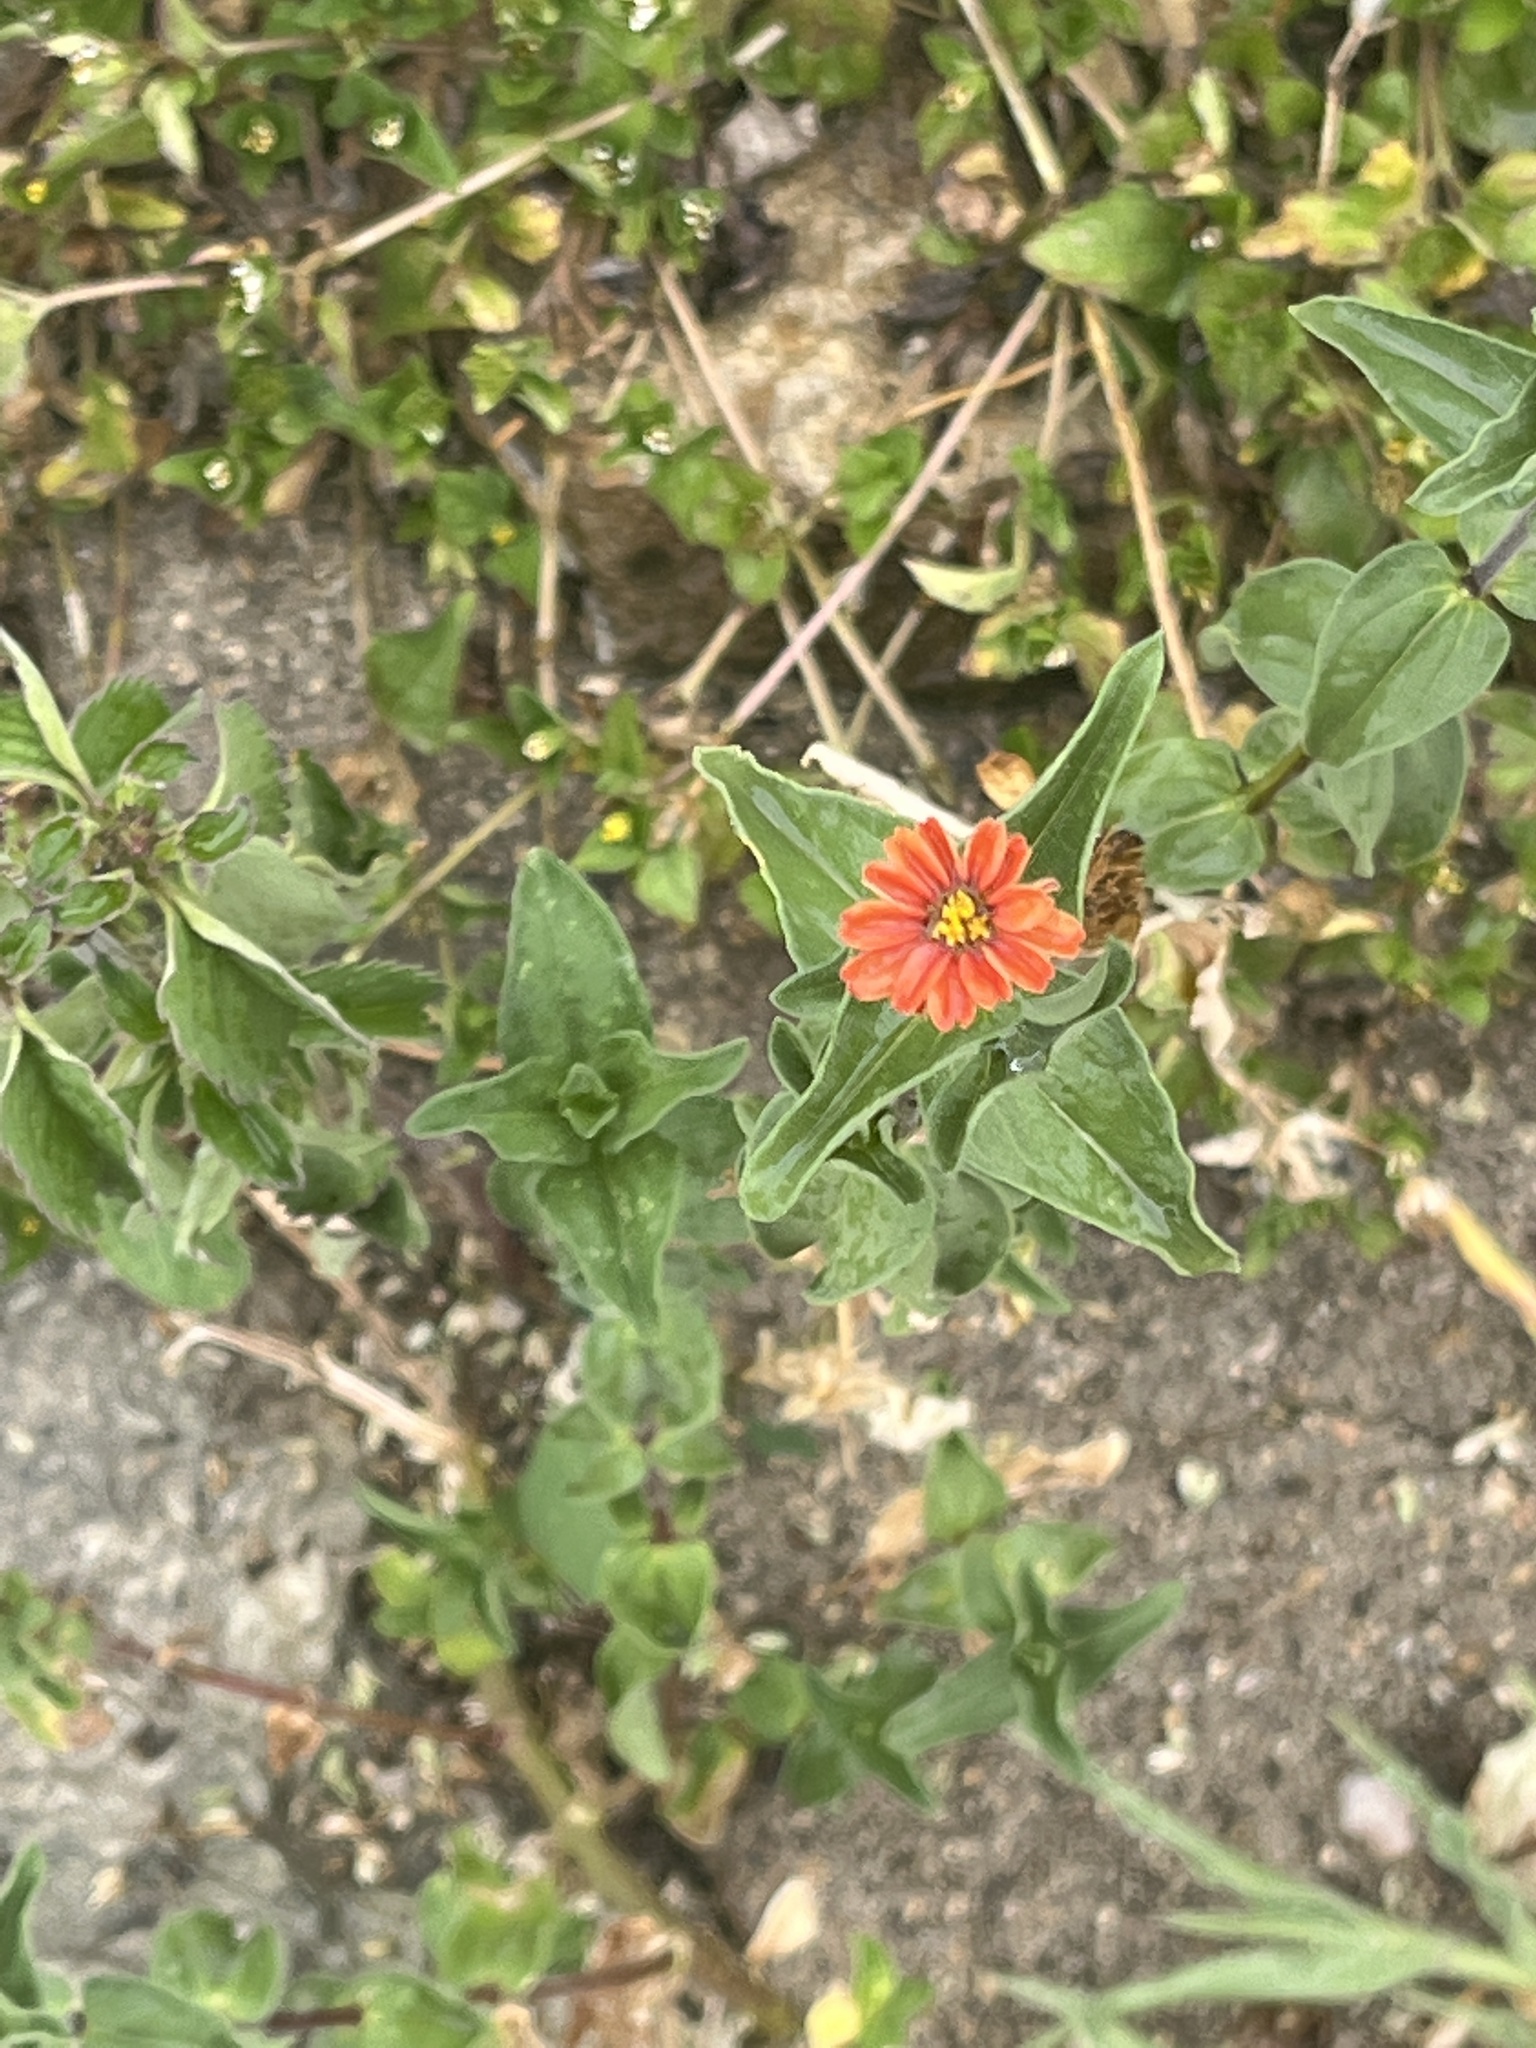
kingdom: Plantae
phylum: Tracheophyta
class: Magnoliopsida
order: Asterales
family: Asteraceae
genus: Zinnia
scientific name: Zinnia peruviana
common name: Peruvian zinnia
